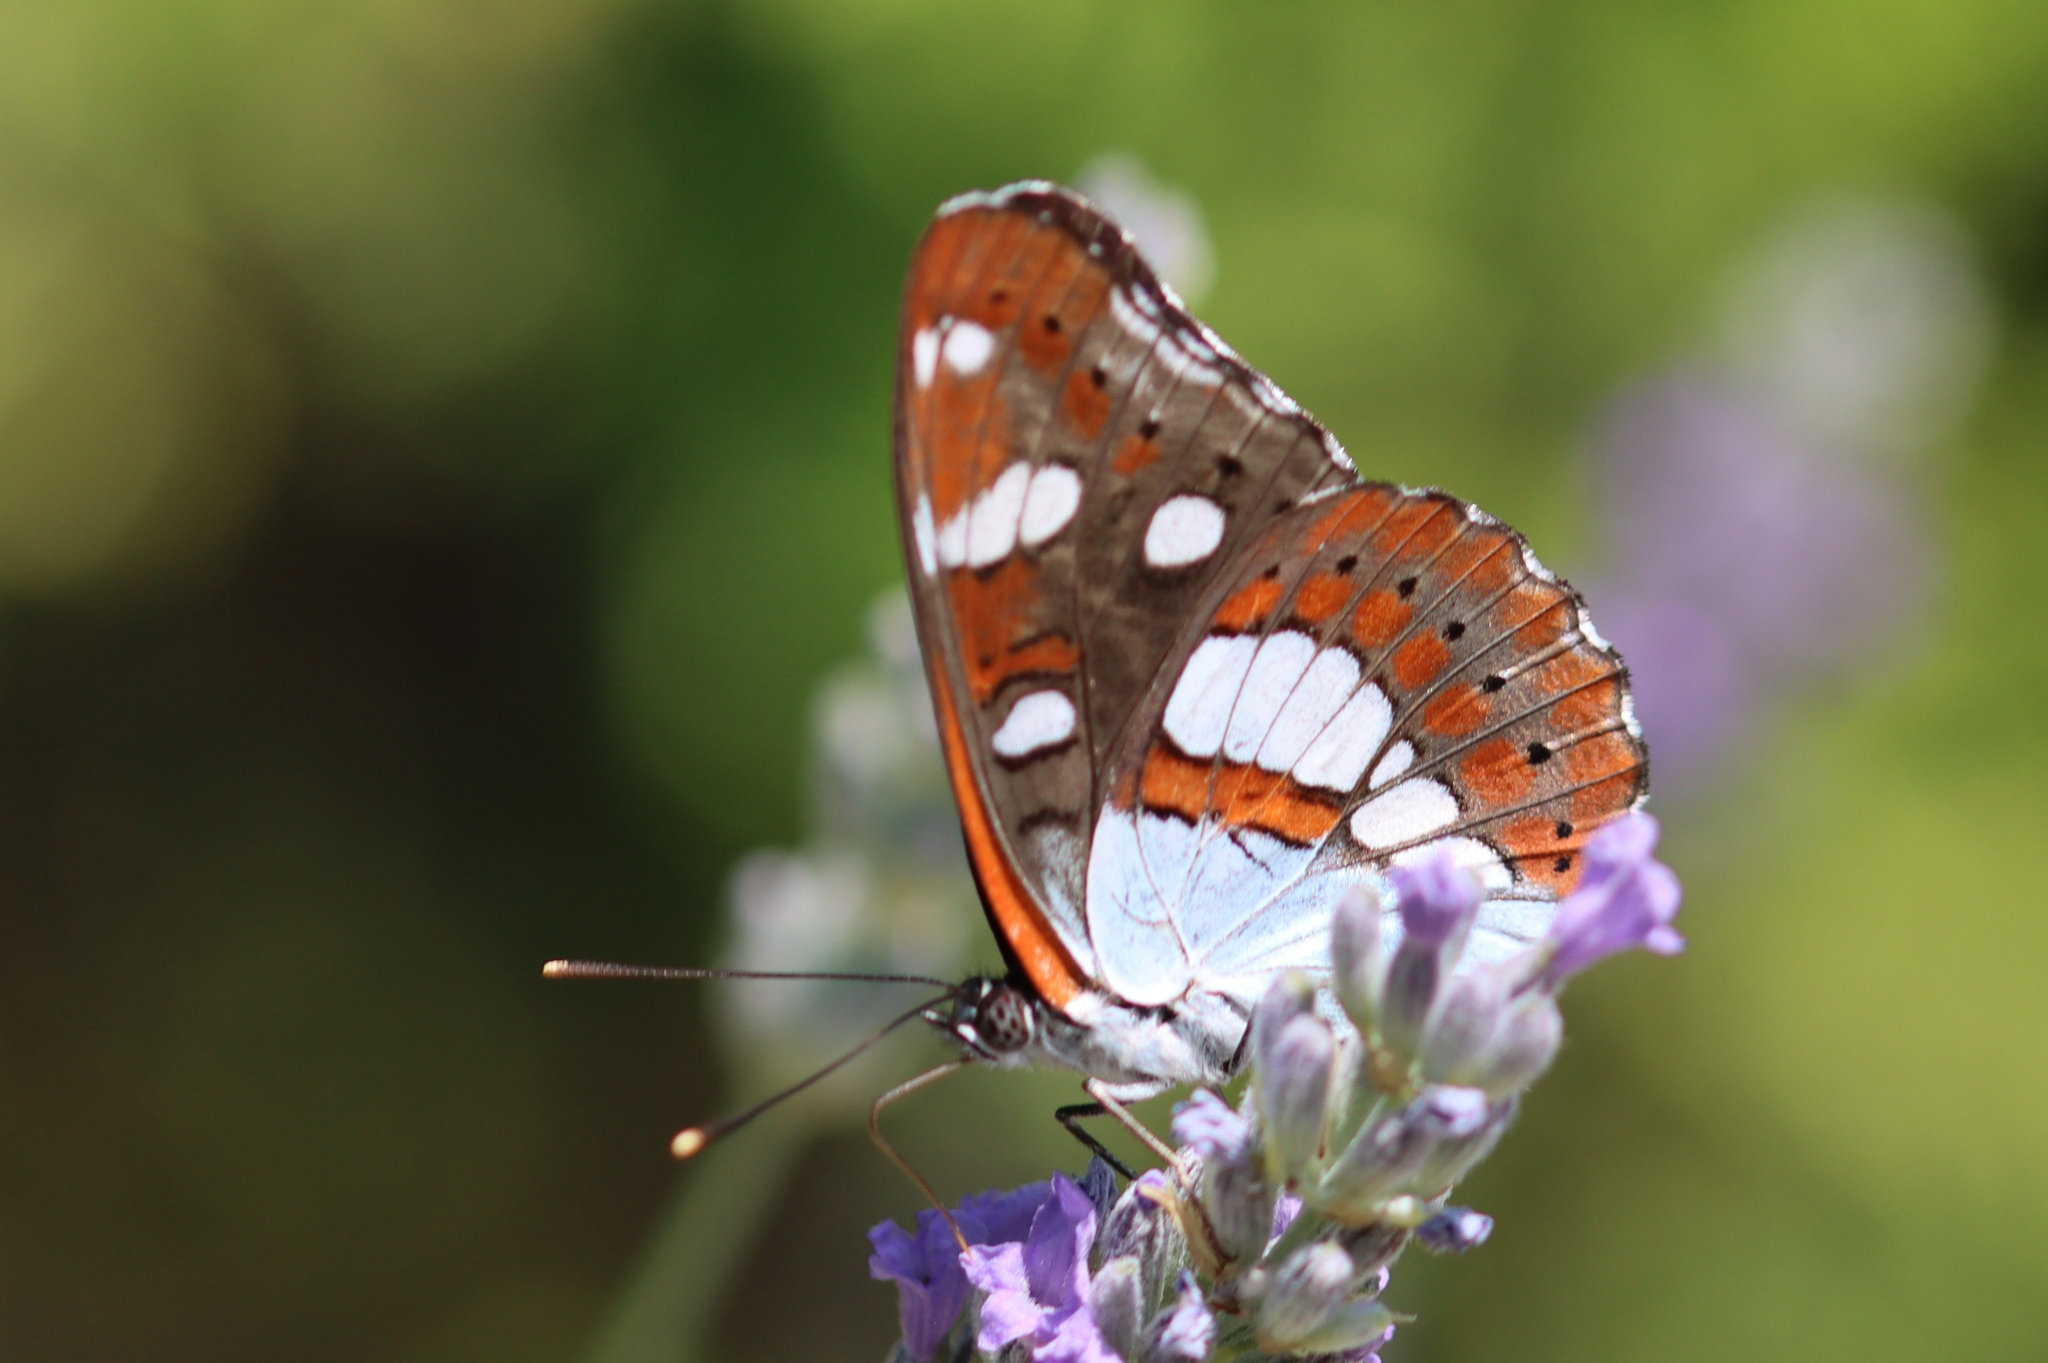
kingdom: Animalia
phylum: Arthropoda
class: Insecta
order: Lepidoptera
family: Nymphalidae
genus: Limenitis
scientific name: Limenitis reducta
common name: Southern white admiral
